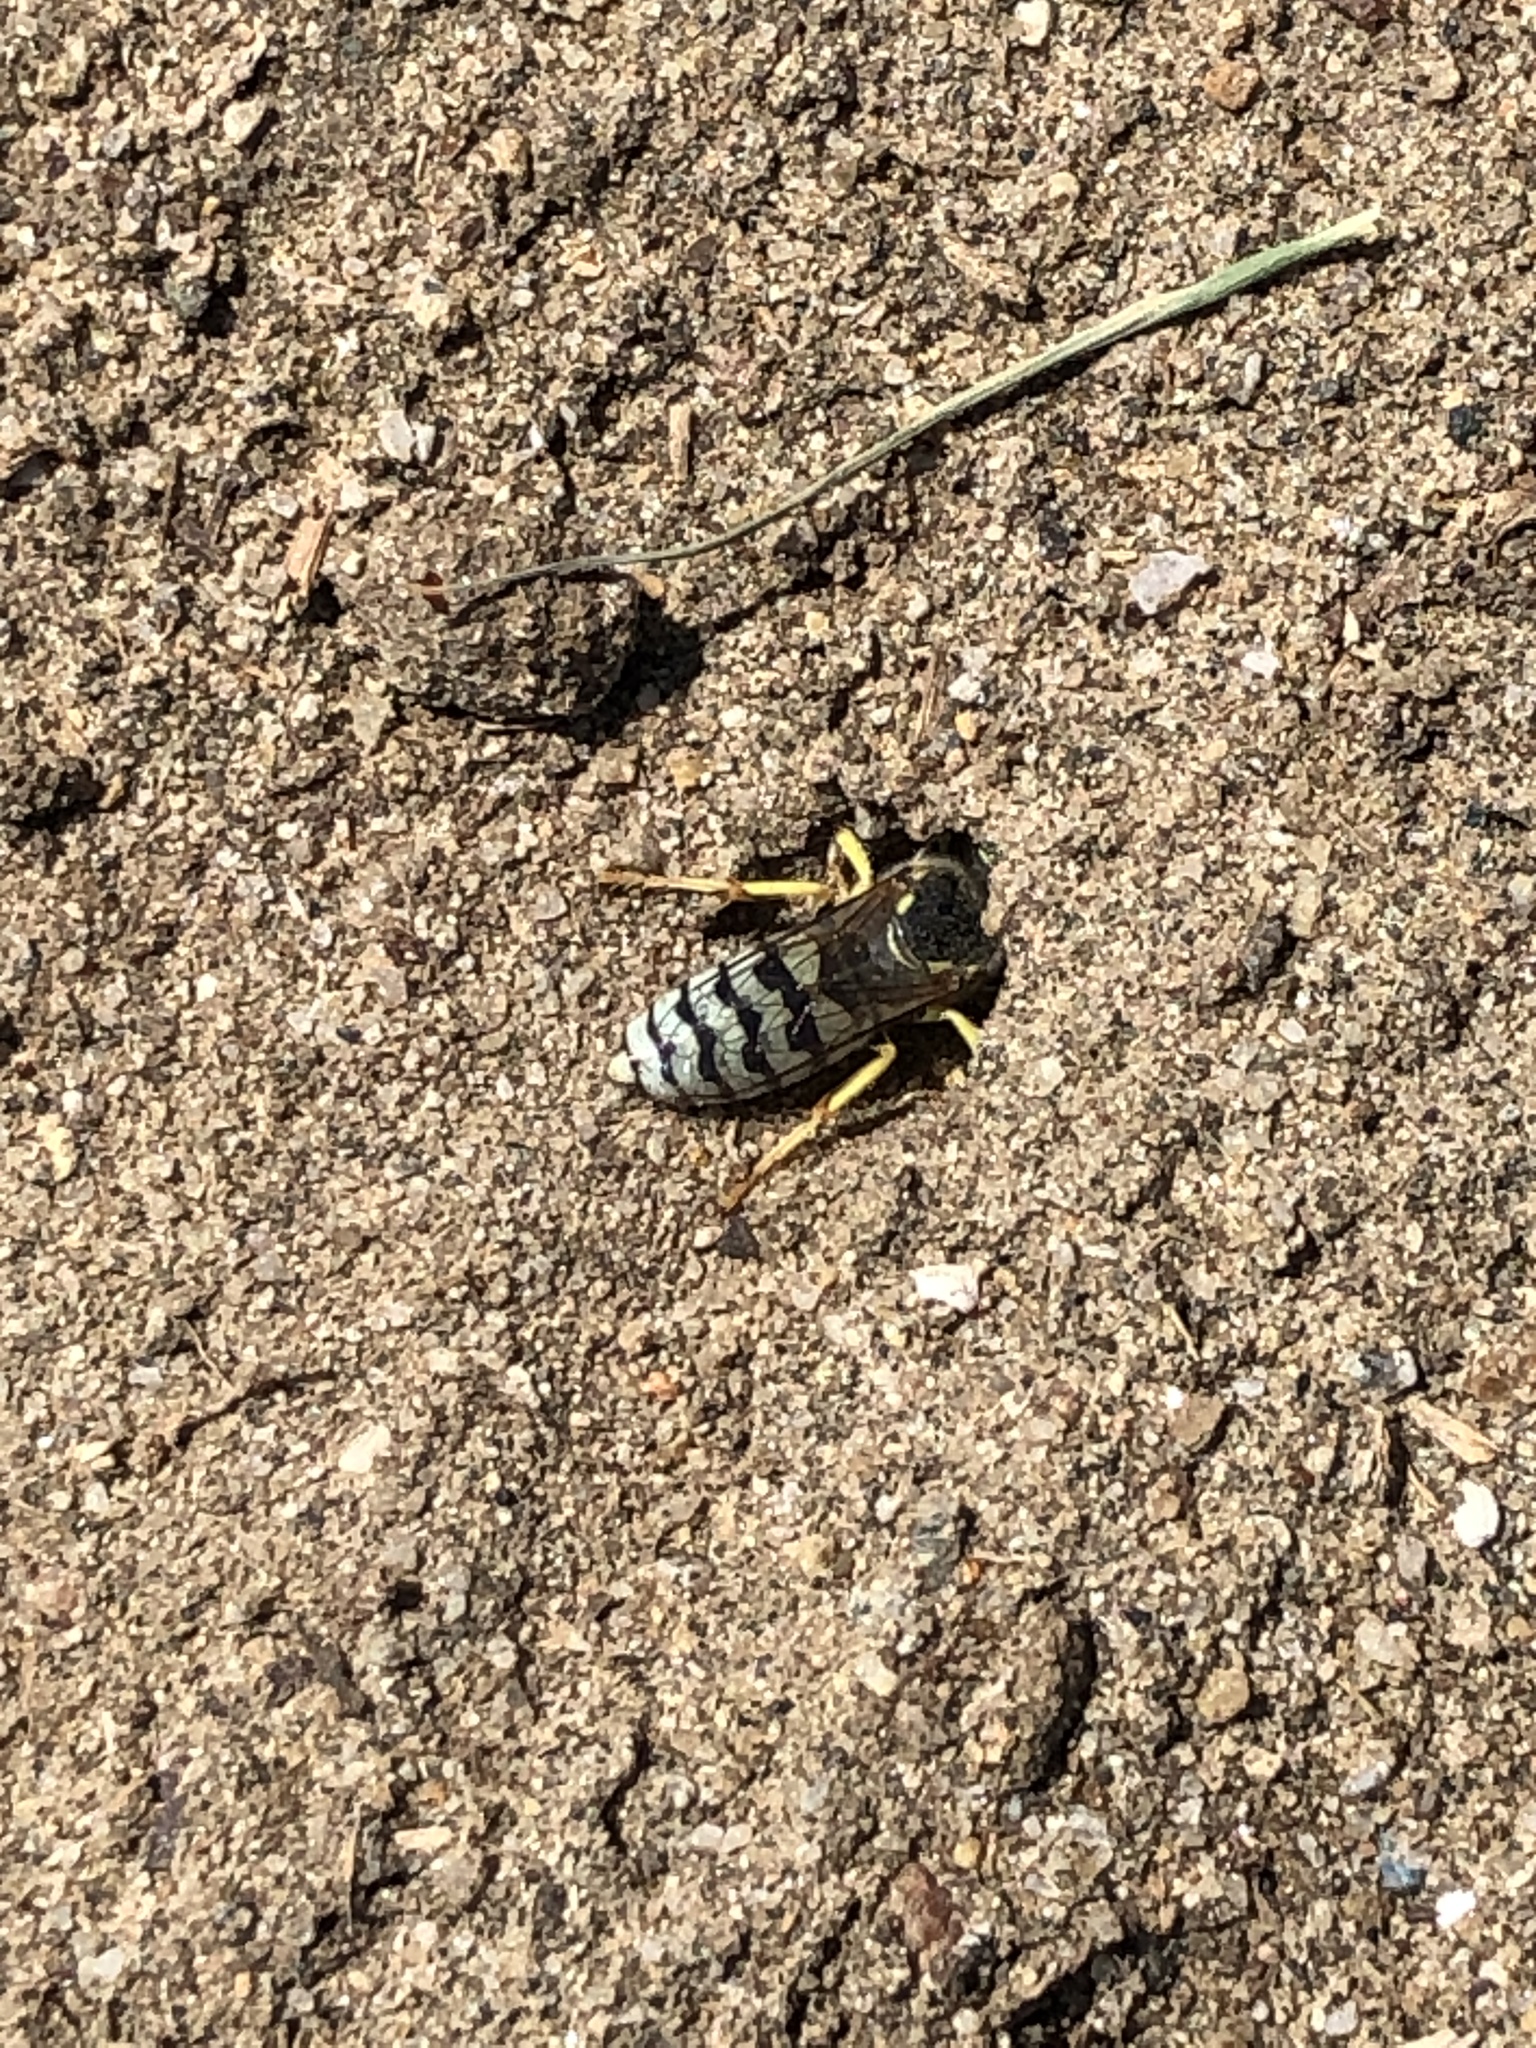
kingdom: Animalia
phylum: Arthropoda
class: Insecta
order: Hymenoptera
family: Crabronidae
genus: Bembix
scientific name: Bembix americana
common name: American sand wasp
